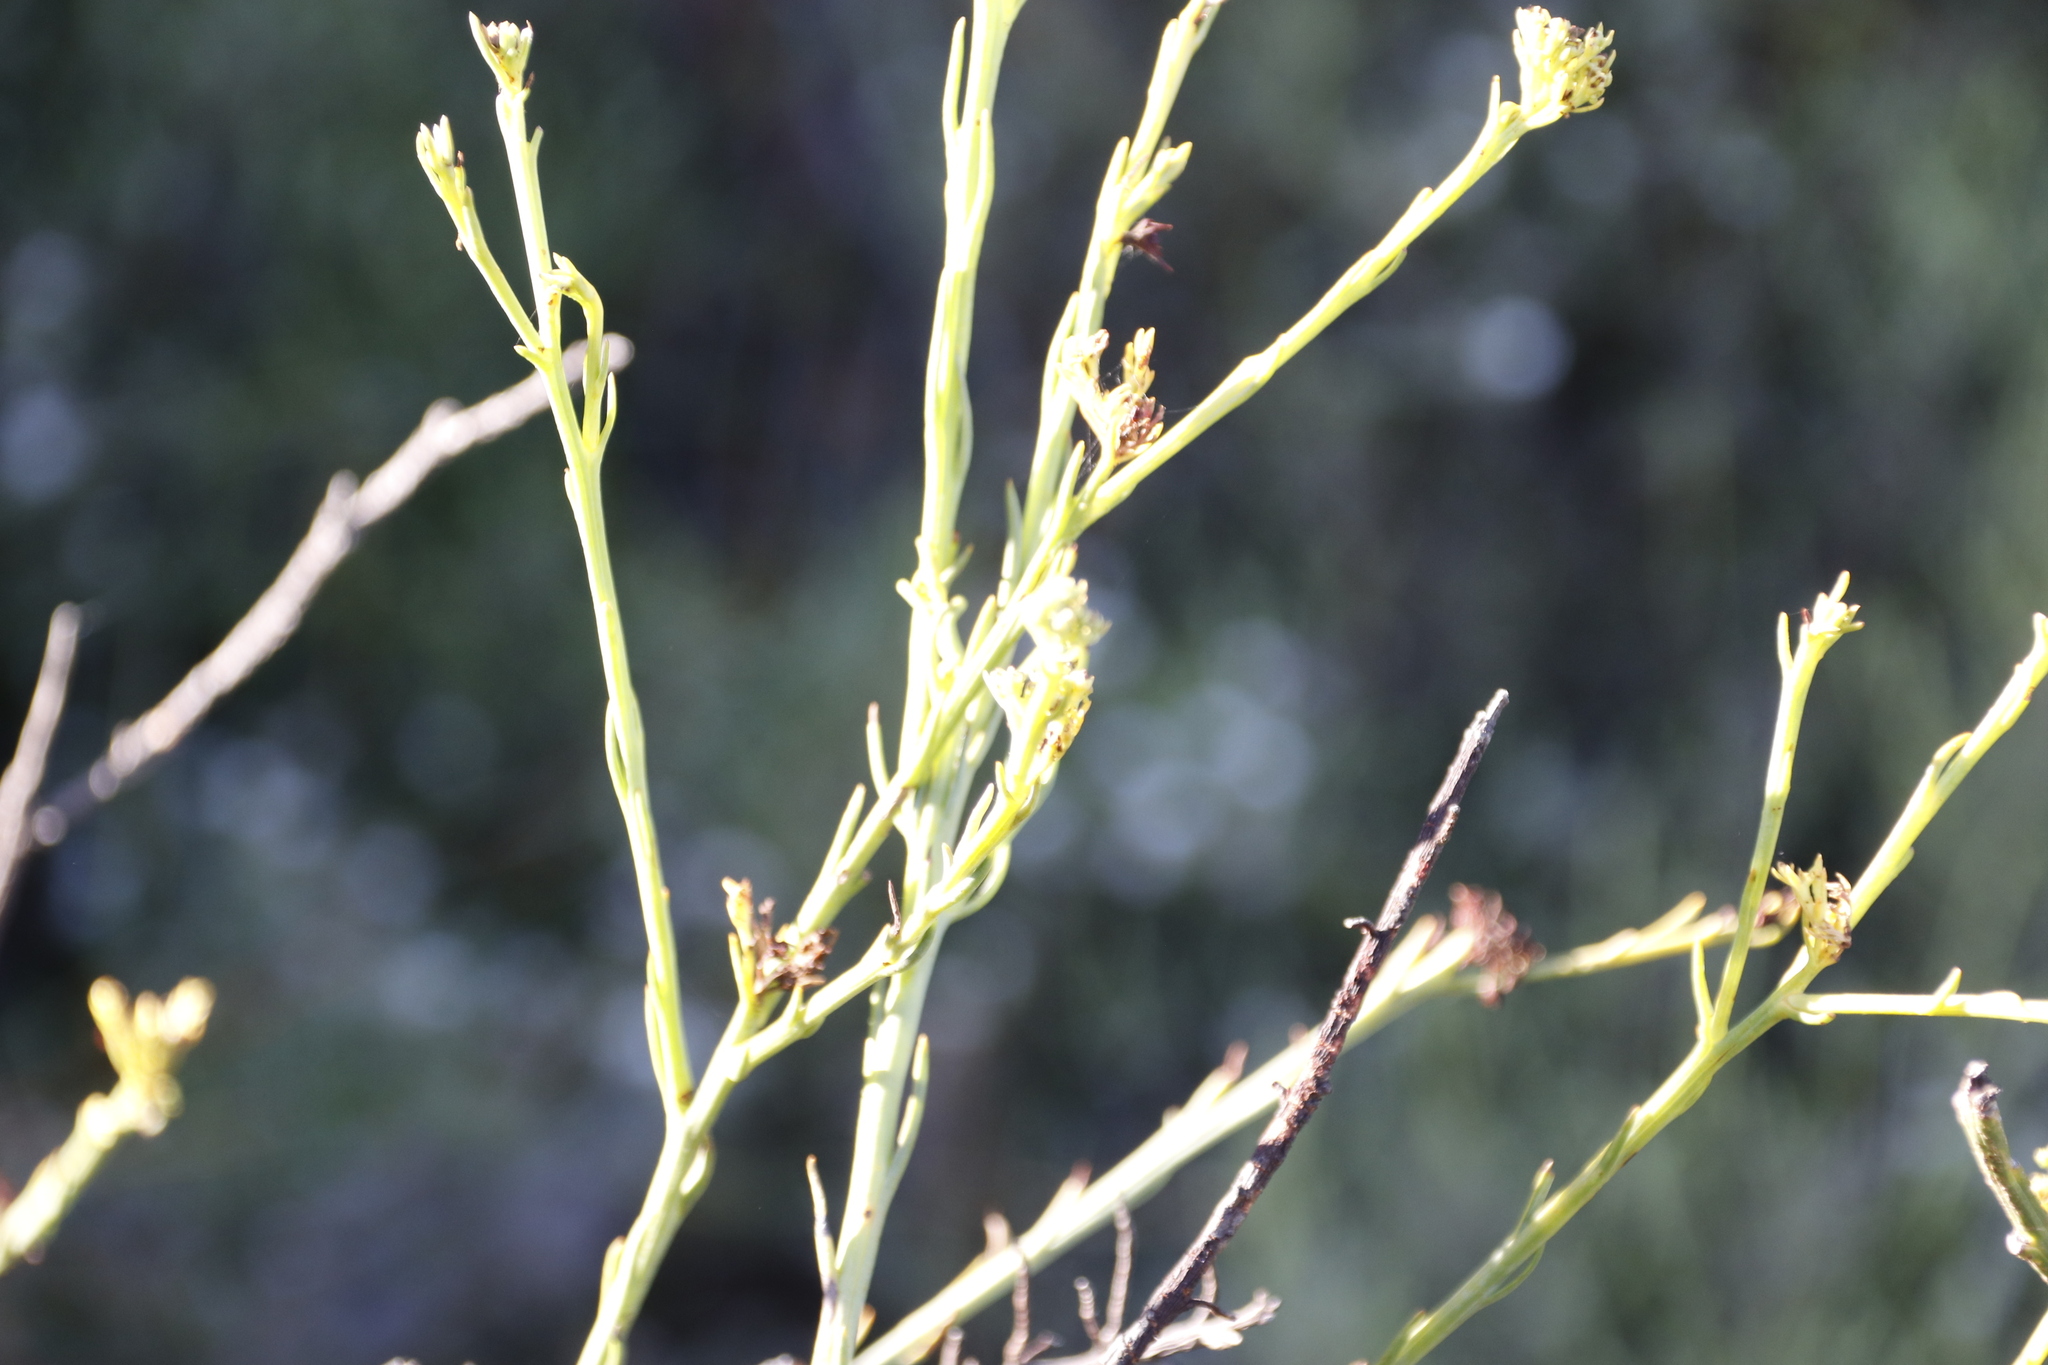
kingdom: Plantae
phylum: Tracheophyta
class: Magnoliopsida
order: Santalales
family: Thesiaceae
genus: Thesium
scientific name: Thesium strictum
